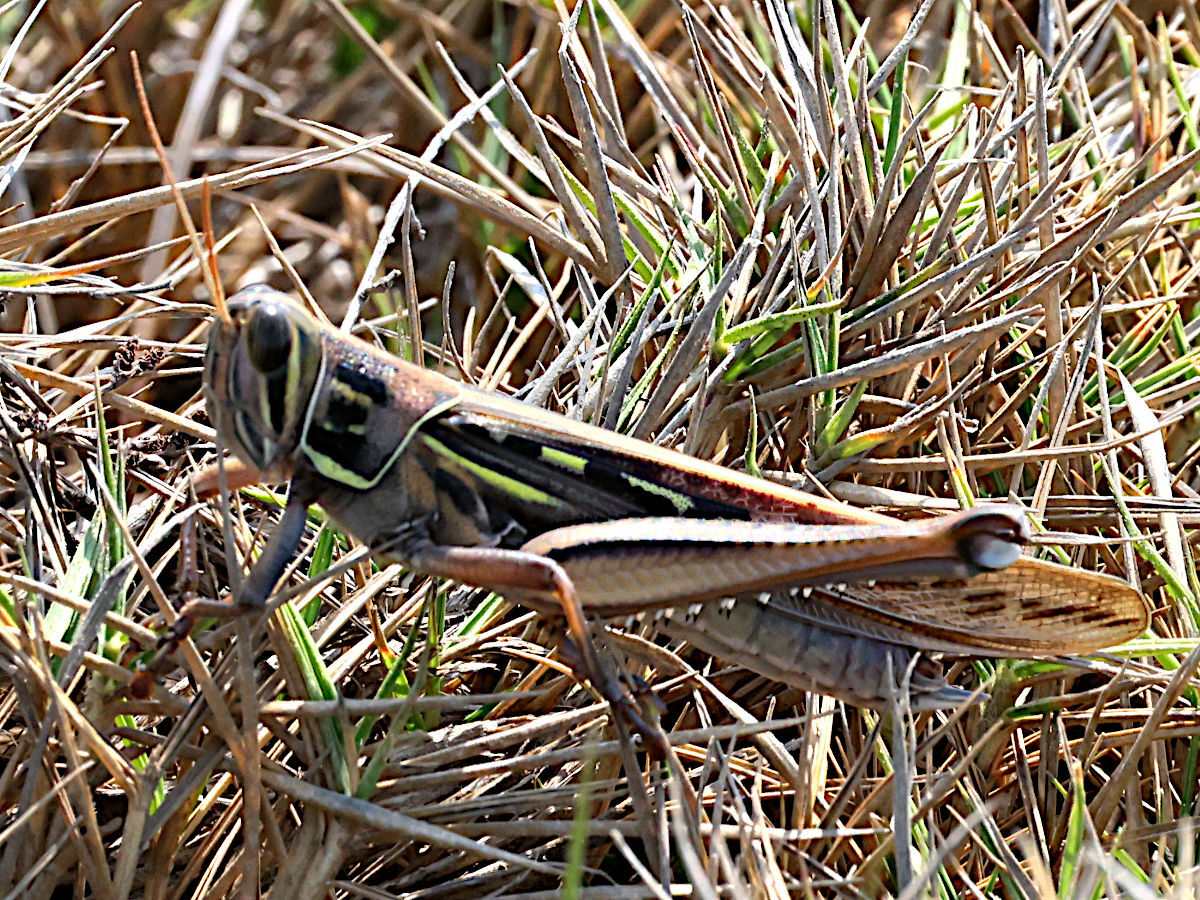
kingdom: Animalia
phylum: Arthropoda
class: Insecta
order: Orthoptera
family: Acrididae
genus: Patanga
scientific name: Patanga japonica
